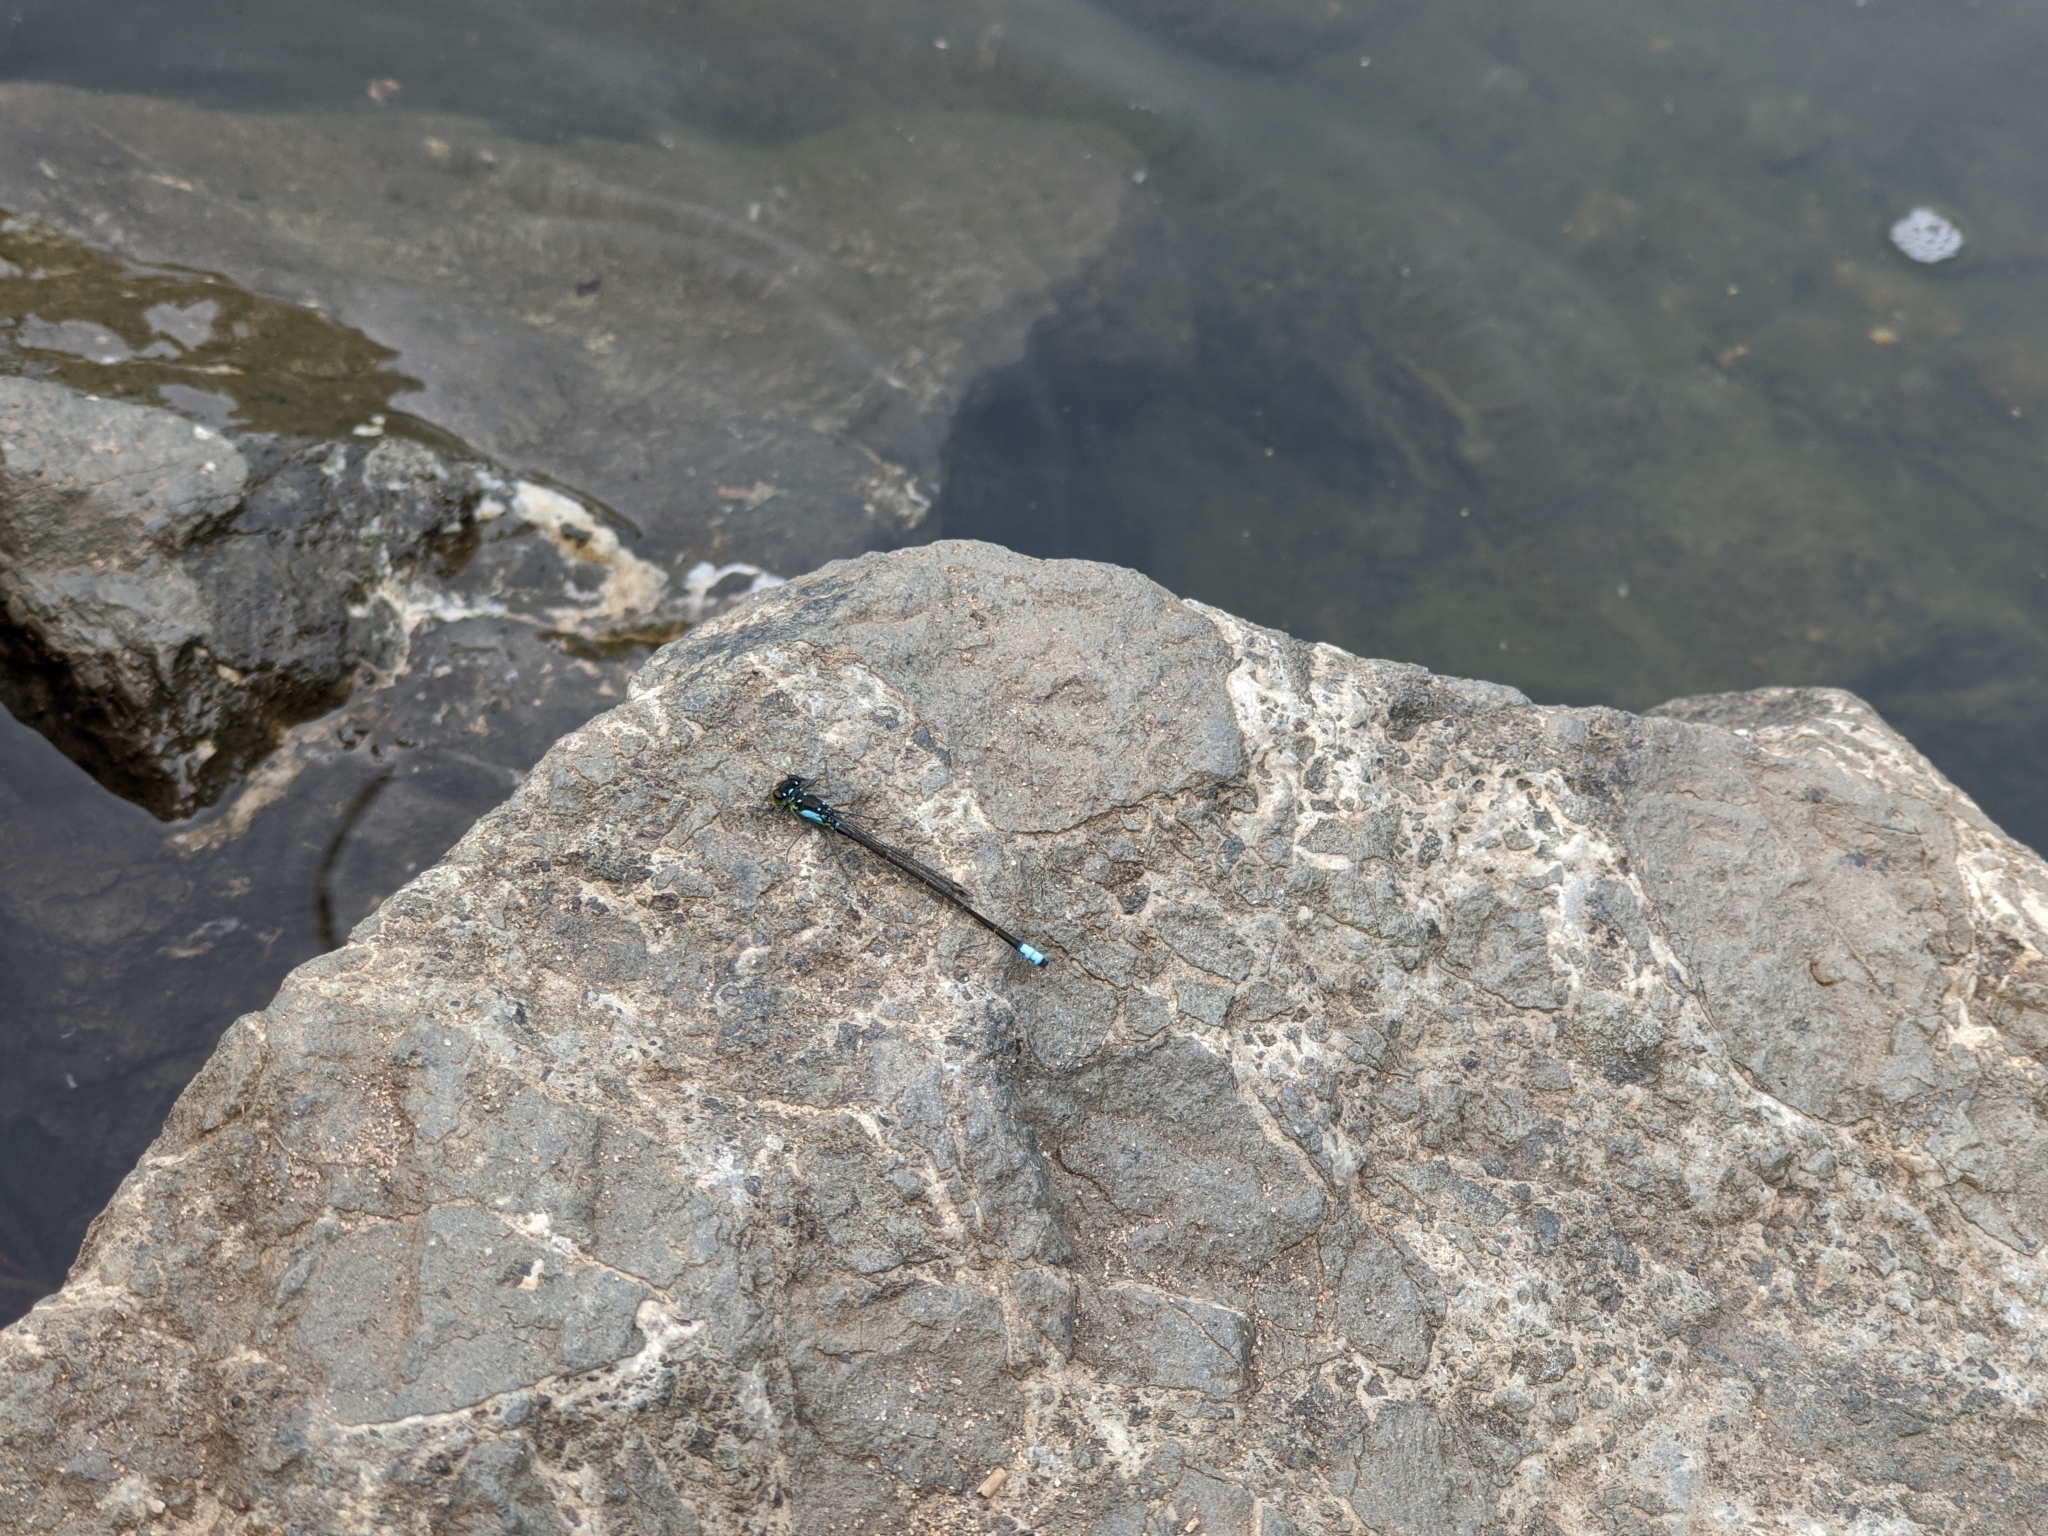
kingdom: Animalia
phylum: Arthropoda
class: Insecta
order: Odonata
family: Coenagrionidae
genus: Ischnura
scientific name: Ischnura cervula
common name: Pacific forktail
